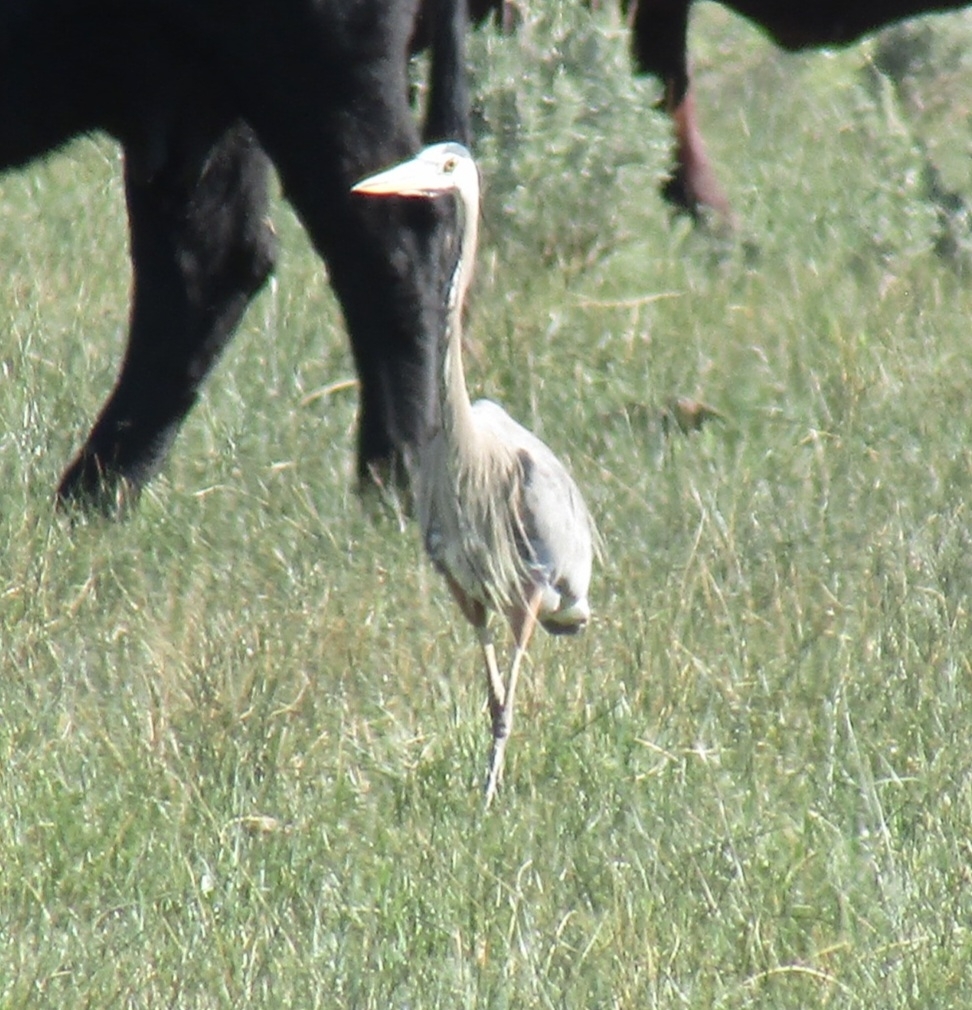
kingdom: Animalia
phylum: Chordata
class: Aves
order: Pelecaniformes
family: Ardeidae
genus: Ardea
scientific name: Ardea herodias
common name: Great blue heron
